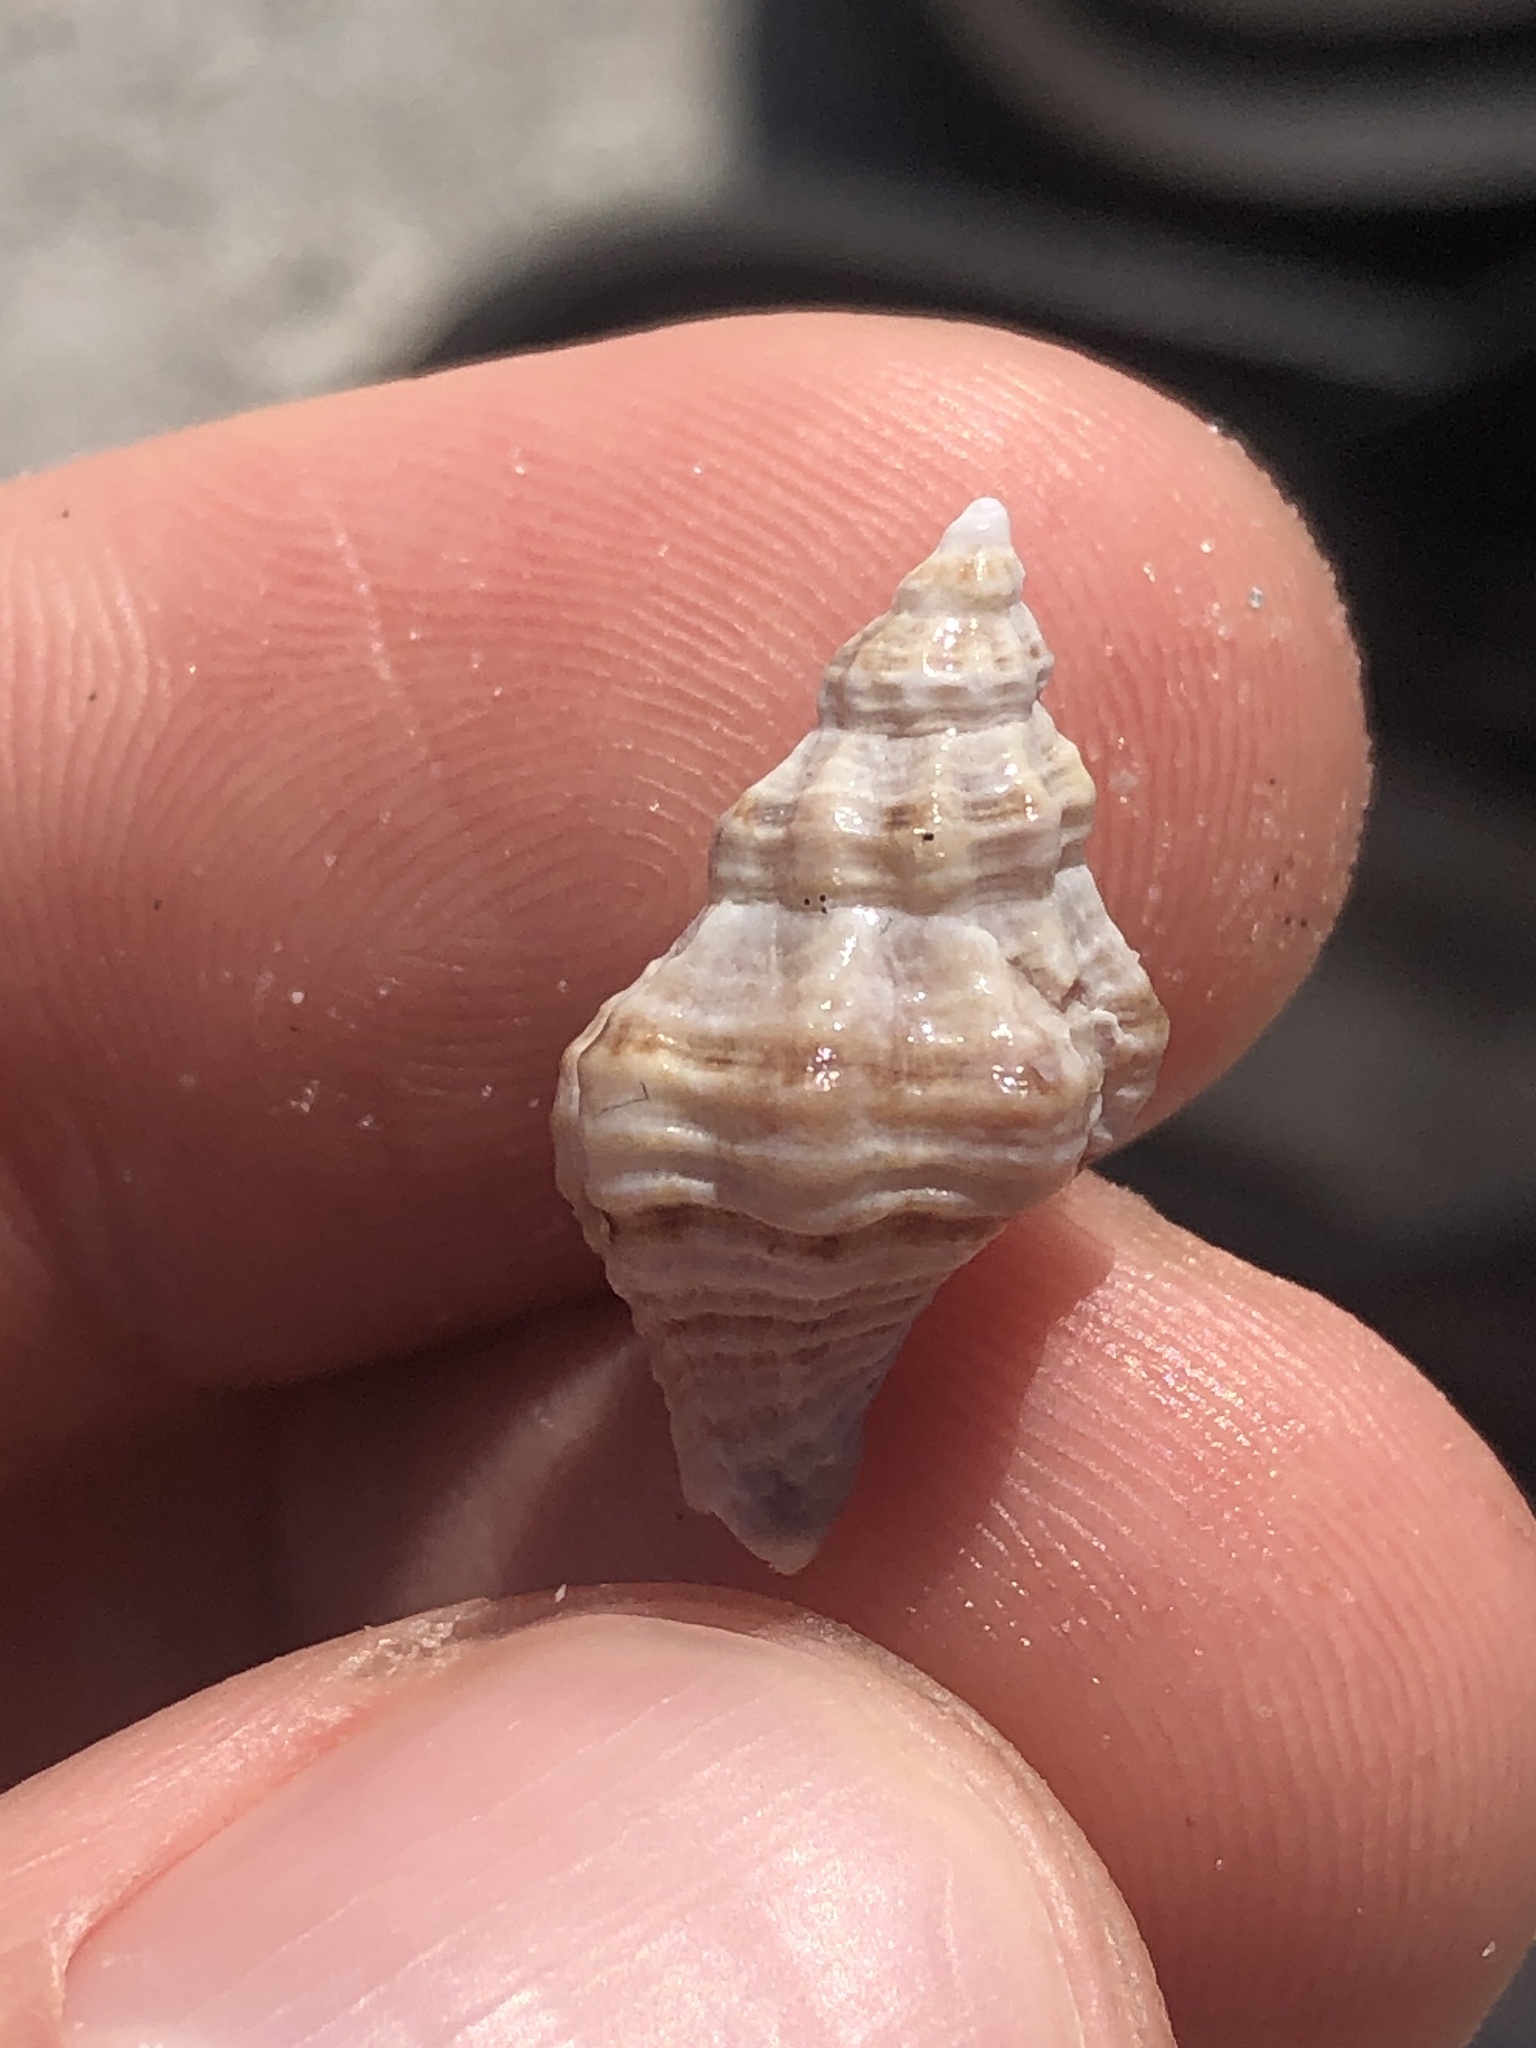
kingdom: Animalia
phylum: Mollusca
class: Gastropoda
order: Neogastropoda
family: Muricidae
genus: Vokesinotus
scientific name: Vokesinotus perrugatus
